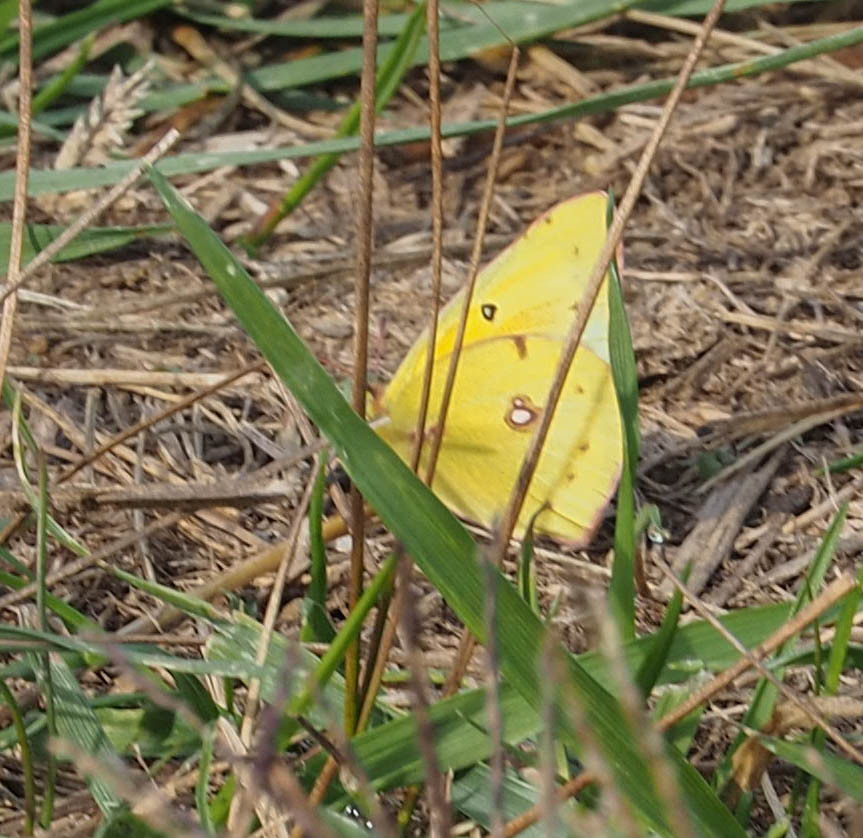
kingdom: Animalia
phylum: Arthropoda
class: Insecta
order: Lepidoptera
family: Pieridae
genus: Colias
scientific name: Colias eurytheme
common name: Alfalfa butterfly
